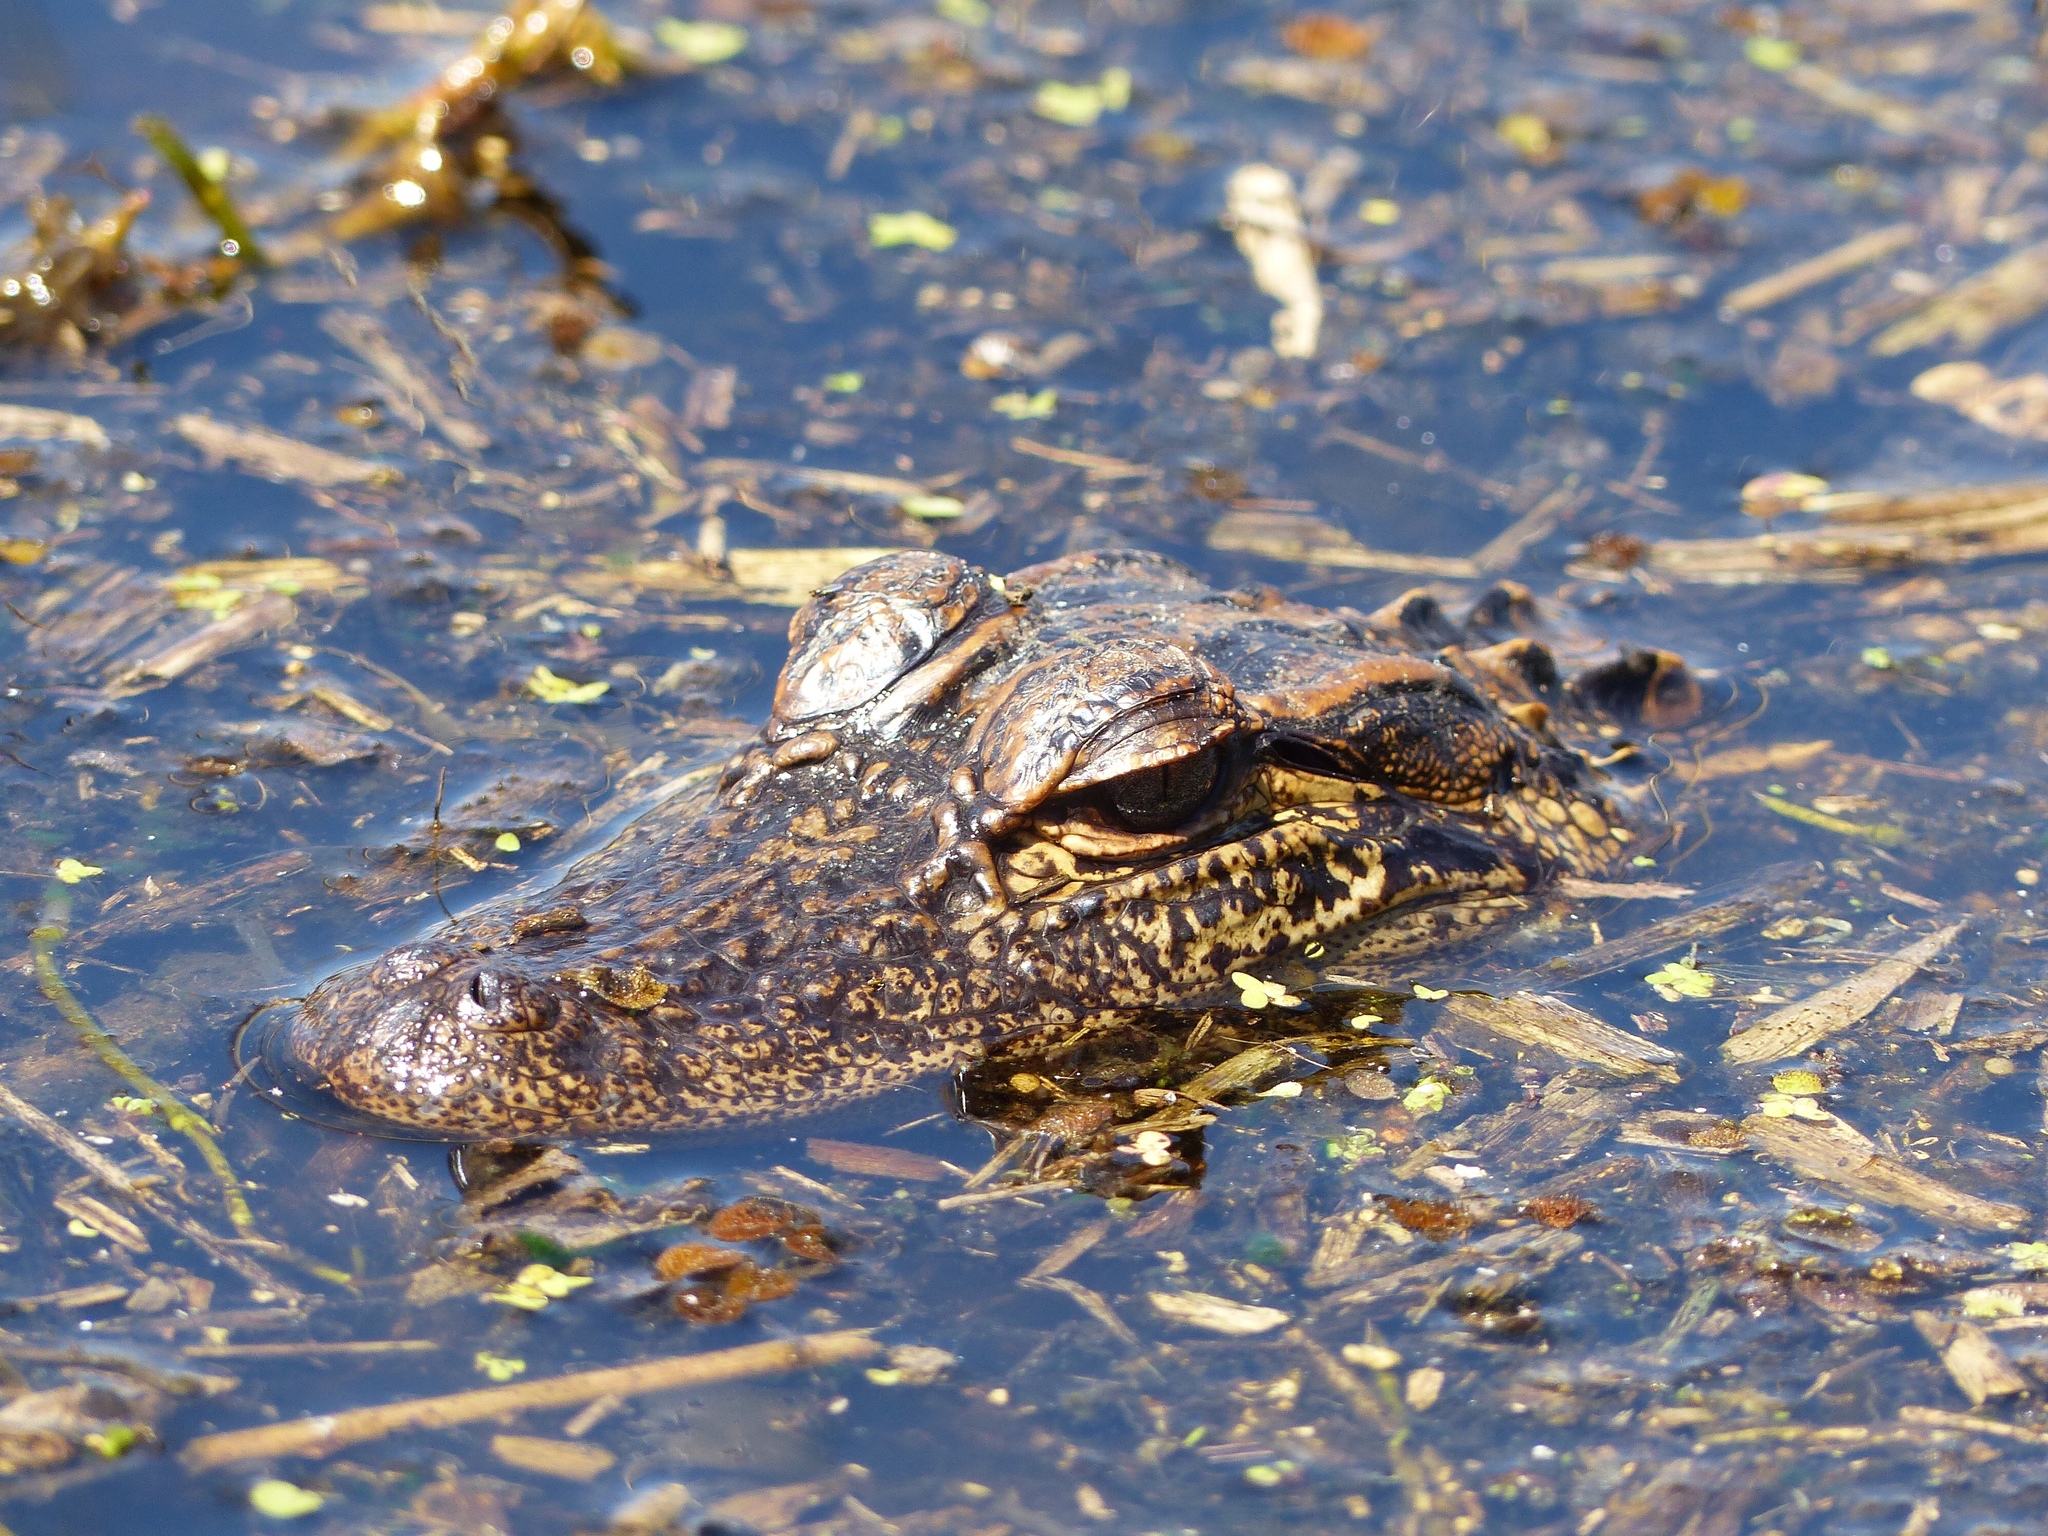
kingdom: Animalia
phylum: Chordata
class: Crocodylia
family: Alligatoridae
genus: Alligator
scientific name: Alligator mississippiensis
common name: American alligator
